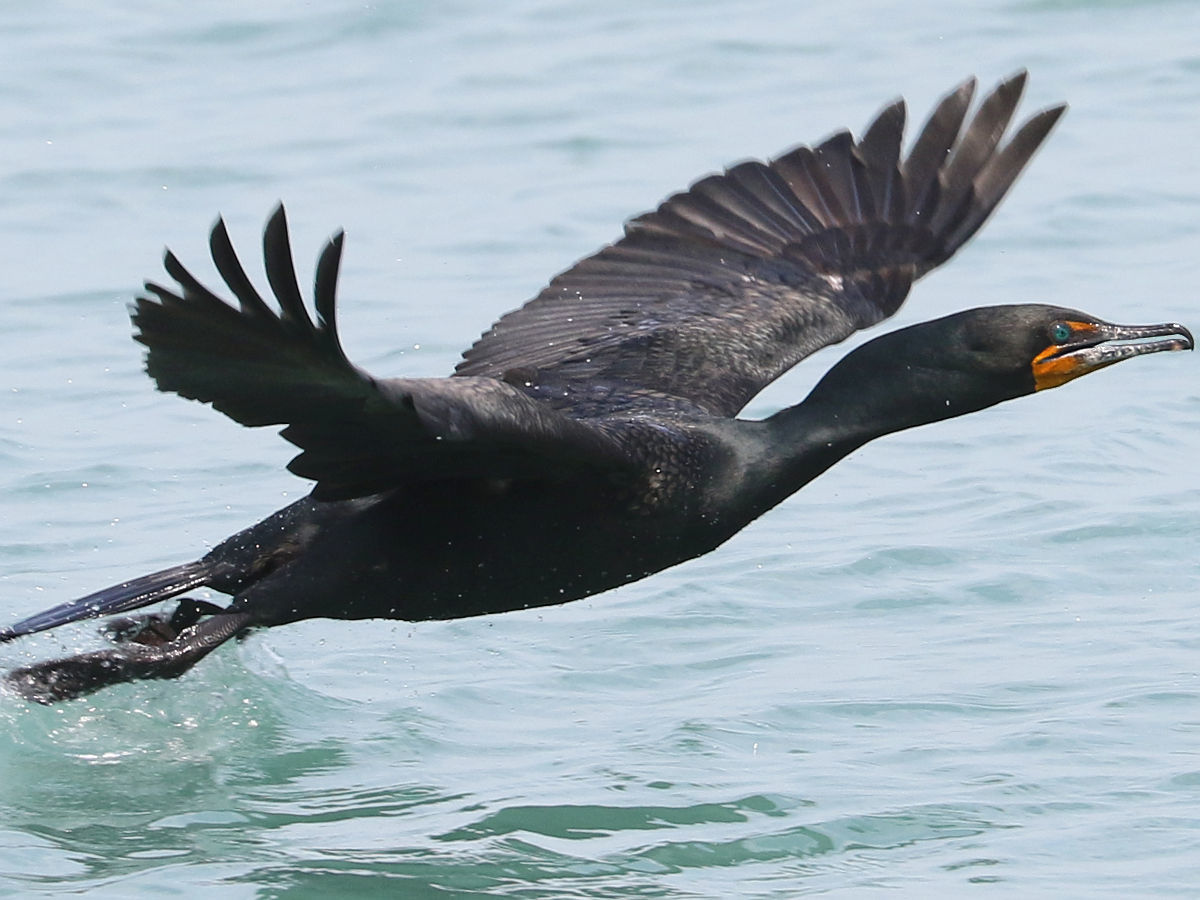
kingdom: Animalia
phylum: Chordata
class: Aves
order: Suliformes
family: Phalacrocoracidae
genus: Phalacrocorax
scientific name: Phalacrocorax auritus
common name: Double-crested cormorant
